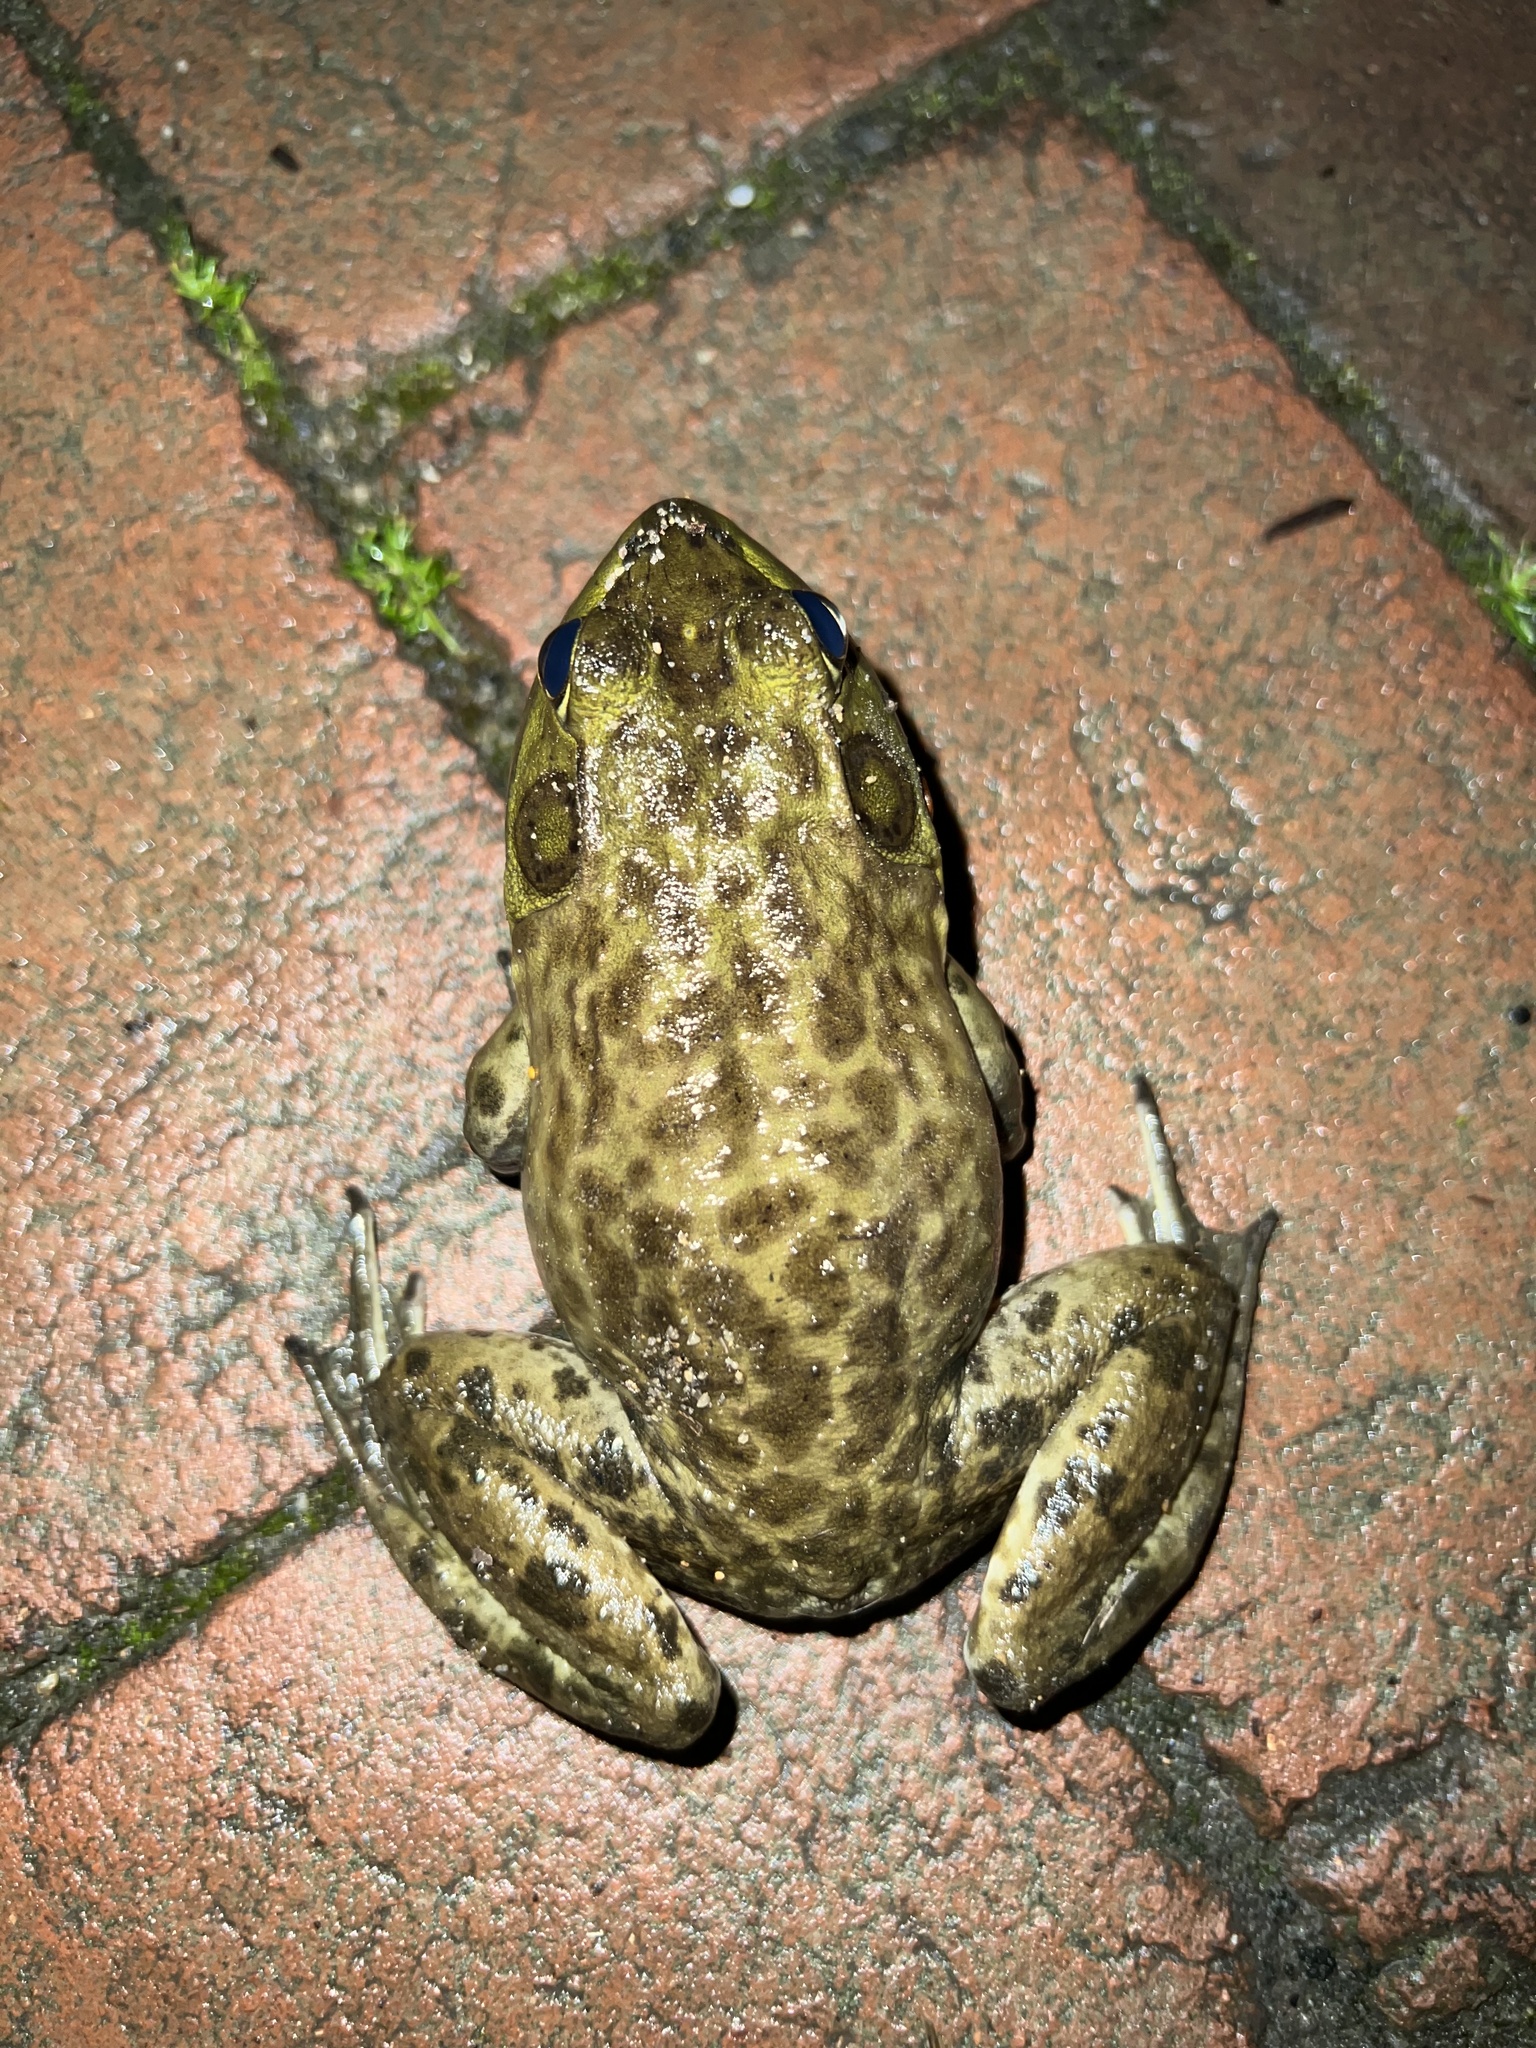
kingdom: Animalia
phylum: Chordata
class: Amphibia
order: Anura
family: Ranidae
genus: Lithobates
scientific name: Lithobates catesbeianus
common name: American bullfrog
